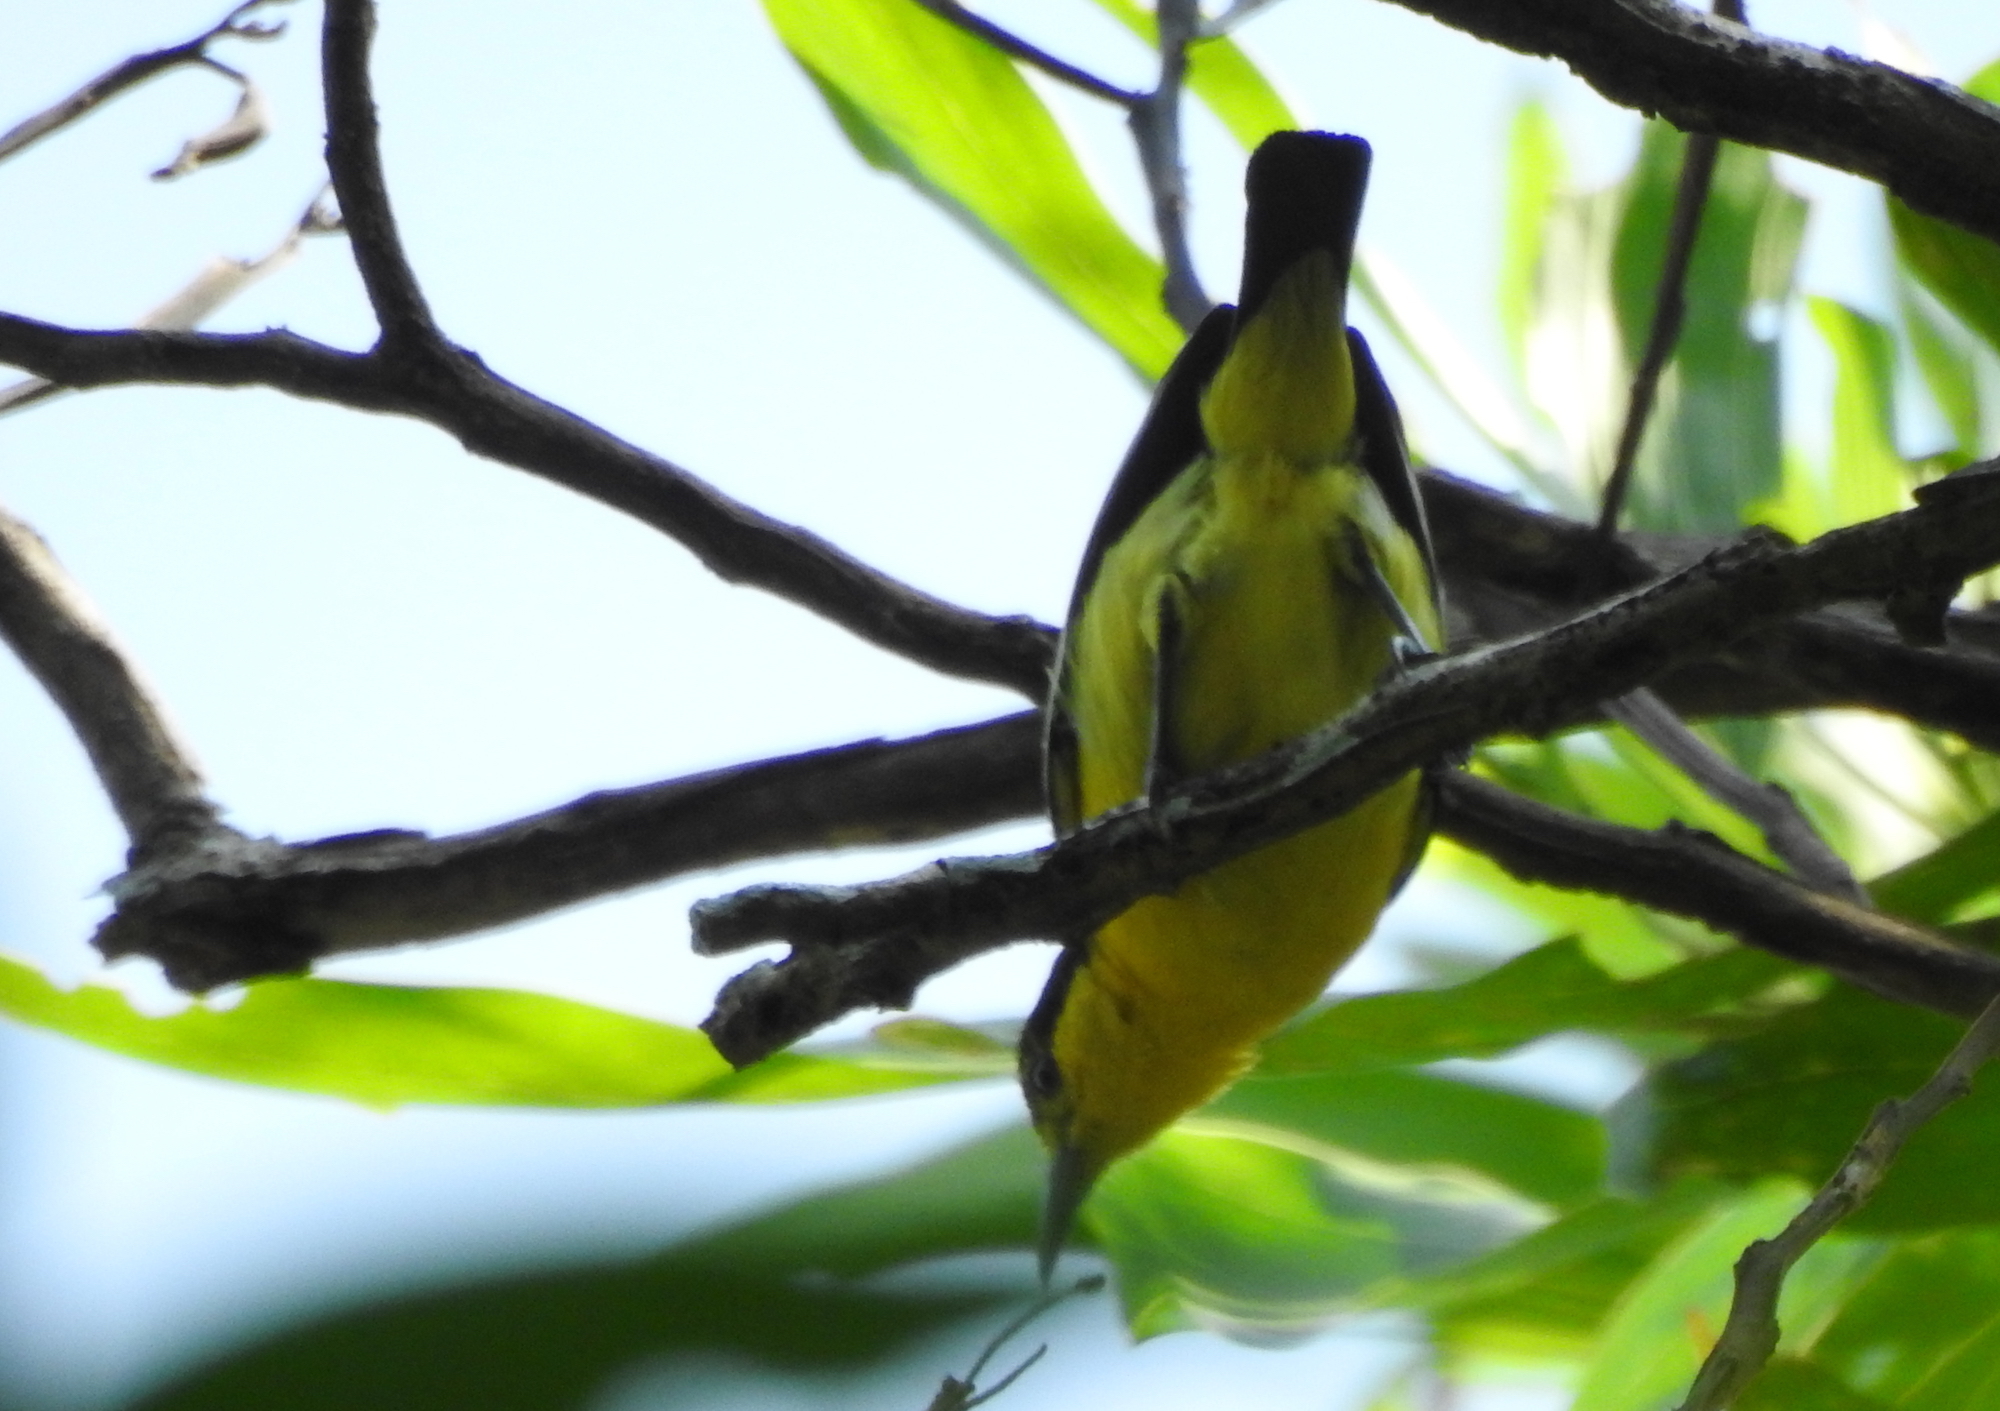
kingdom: Animalia
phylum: Chordata
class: Aves
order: Passeriformes
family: Aegithinidae
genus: Aegithina
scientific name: Aegithina tiphia
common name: Common iora
